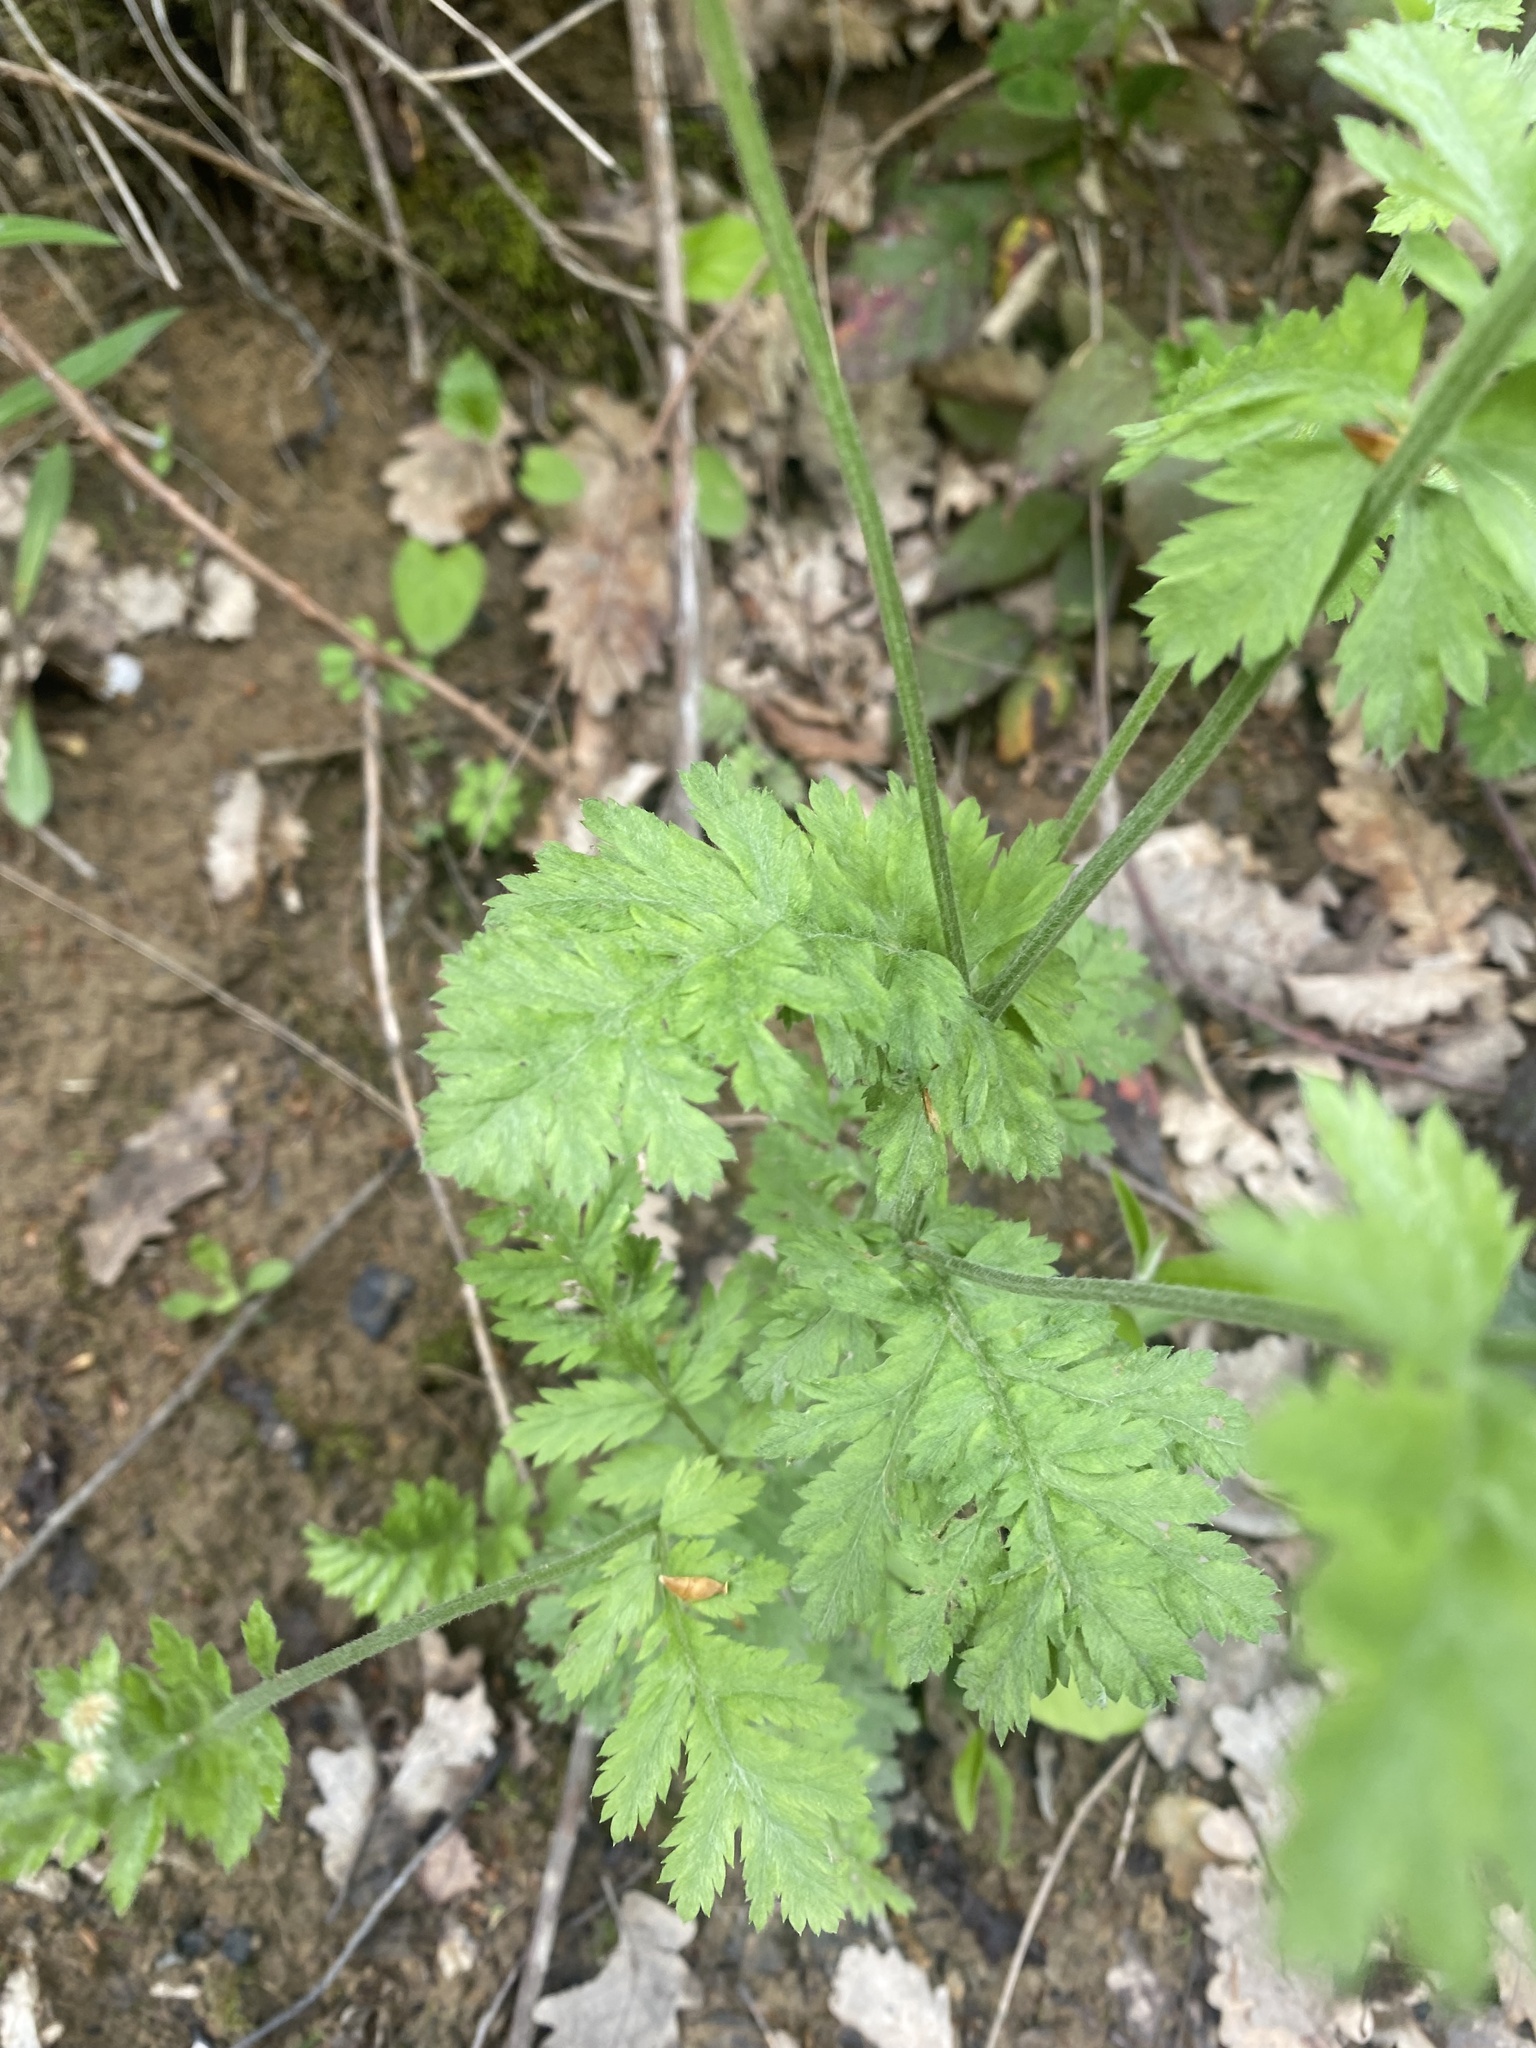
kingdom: Plantae
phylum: Tracheophyta
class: Magnoliopsida
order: Asterales
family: Asteraceae
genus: Tanacetum
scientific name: Tanacetum poteriifolium
